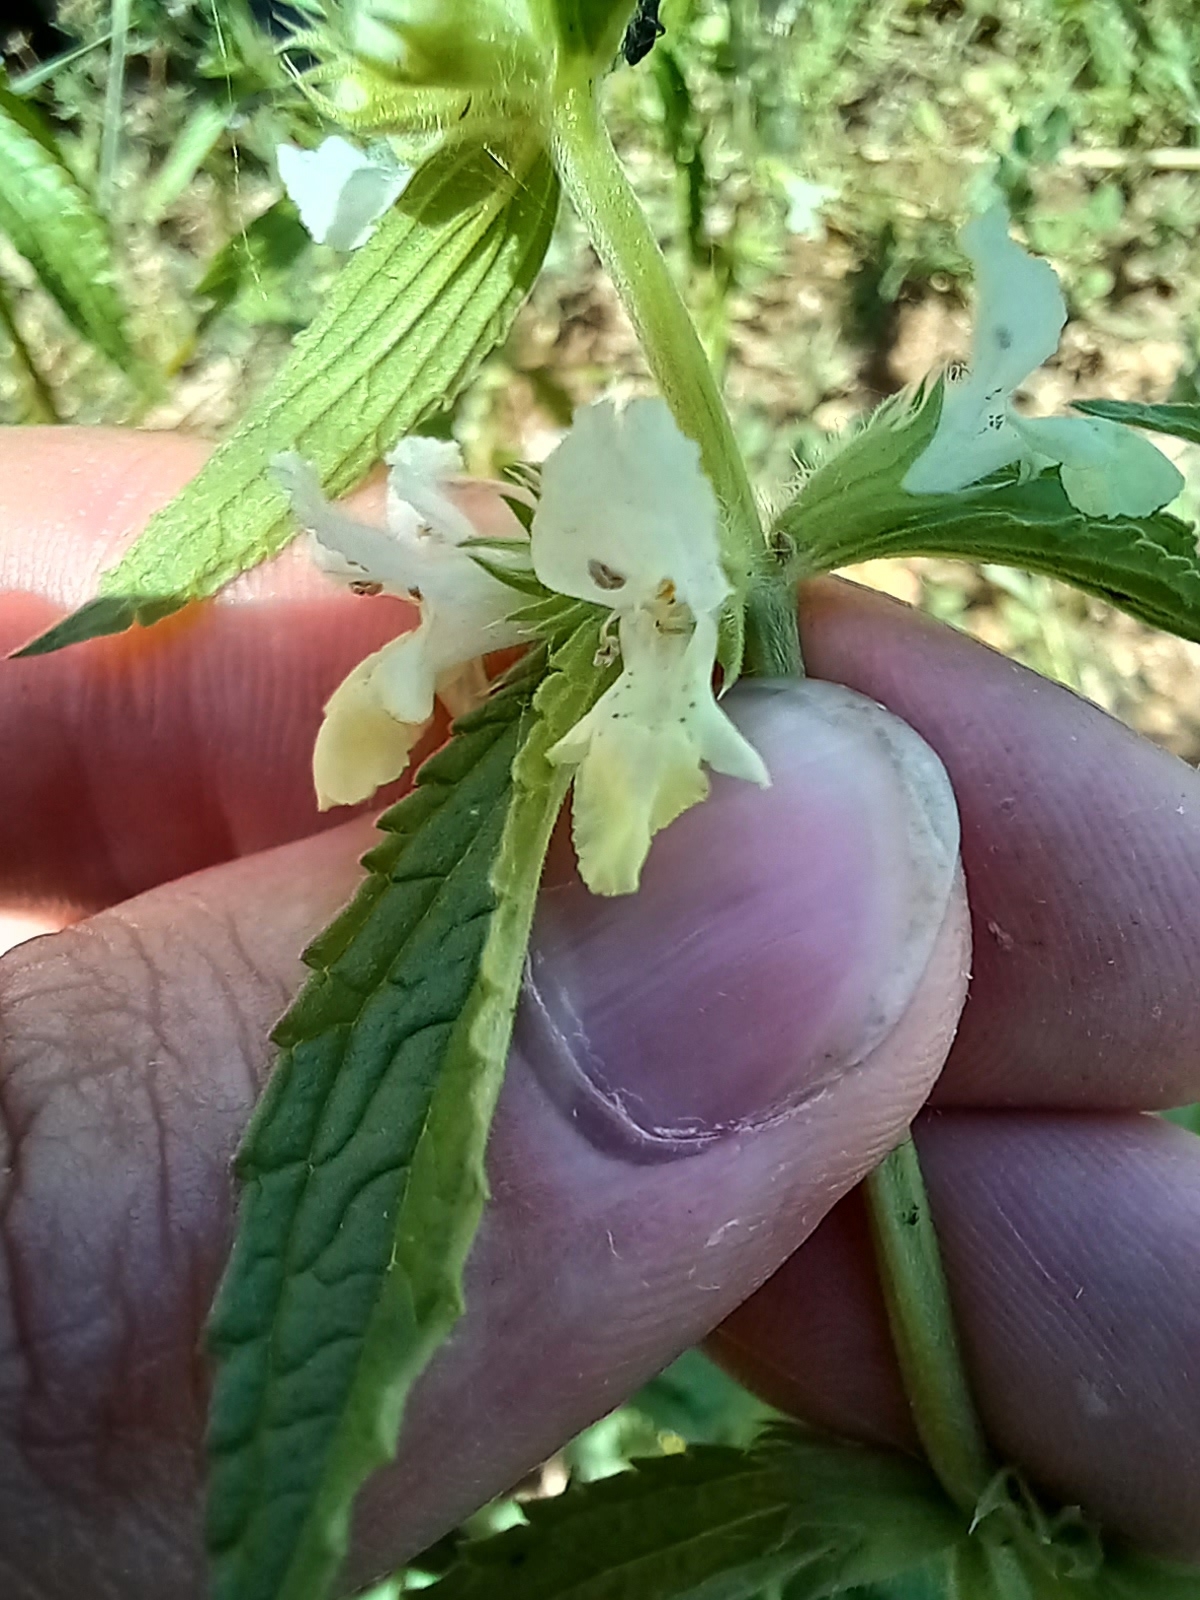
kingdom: Plantae
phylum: Tracheophyta
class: Magnoliopsida
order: Lamiales
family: Lamiaceae
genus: Stachys
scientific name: Stachys annua
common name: Annual yellow-woundwort
